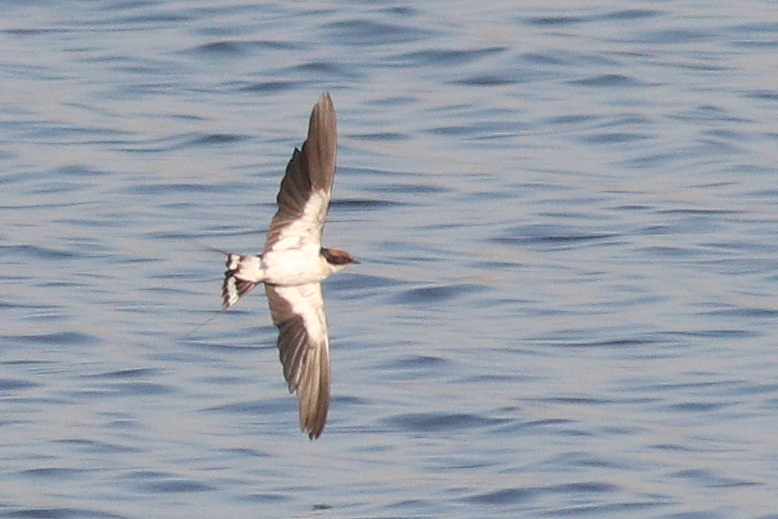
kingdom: Animalia
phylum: Chordata
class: Aves
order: Passeriformes
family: Hirundinidae
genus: Hirundo
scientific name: Hirundo smithii
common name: Wire-tailed swallow
